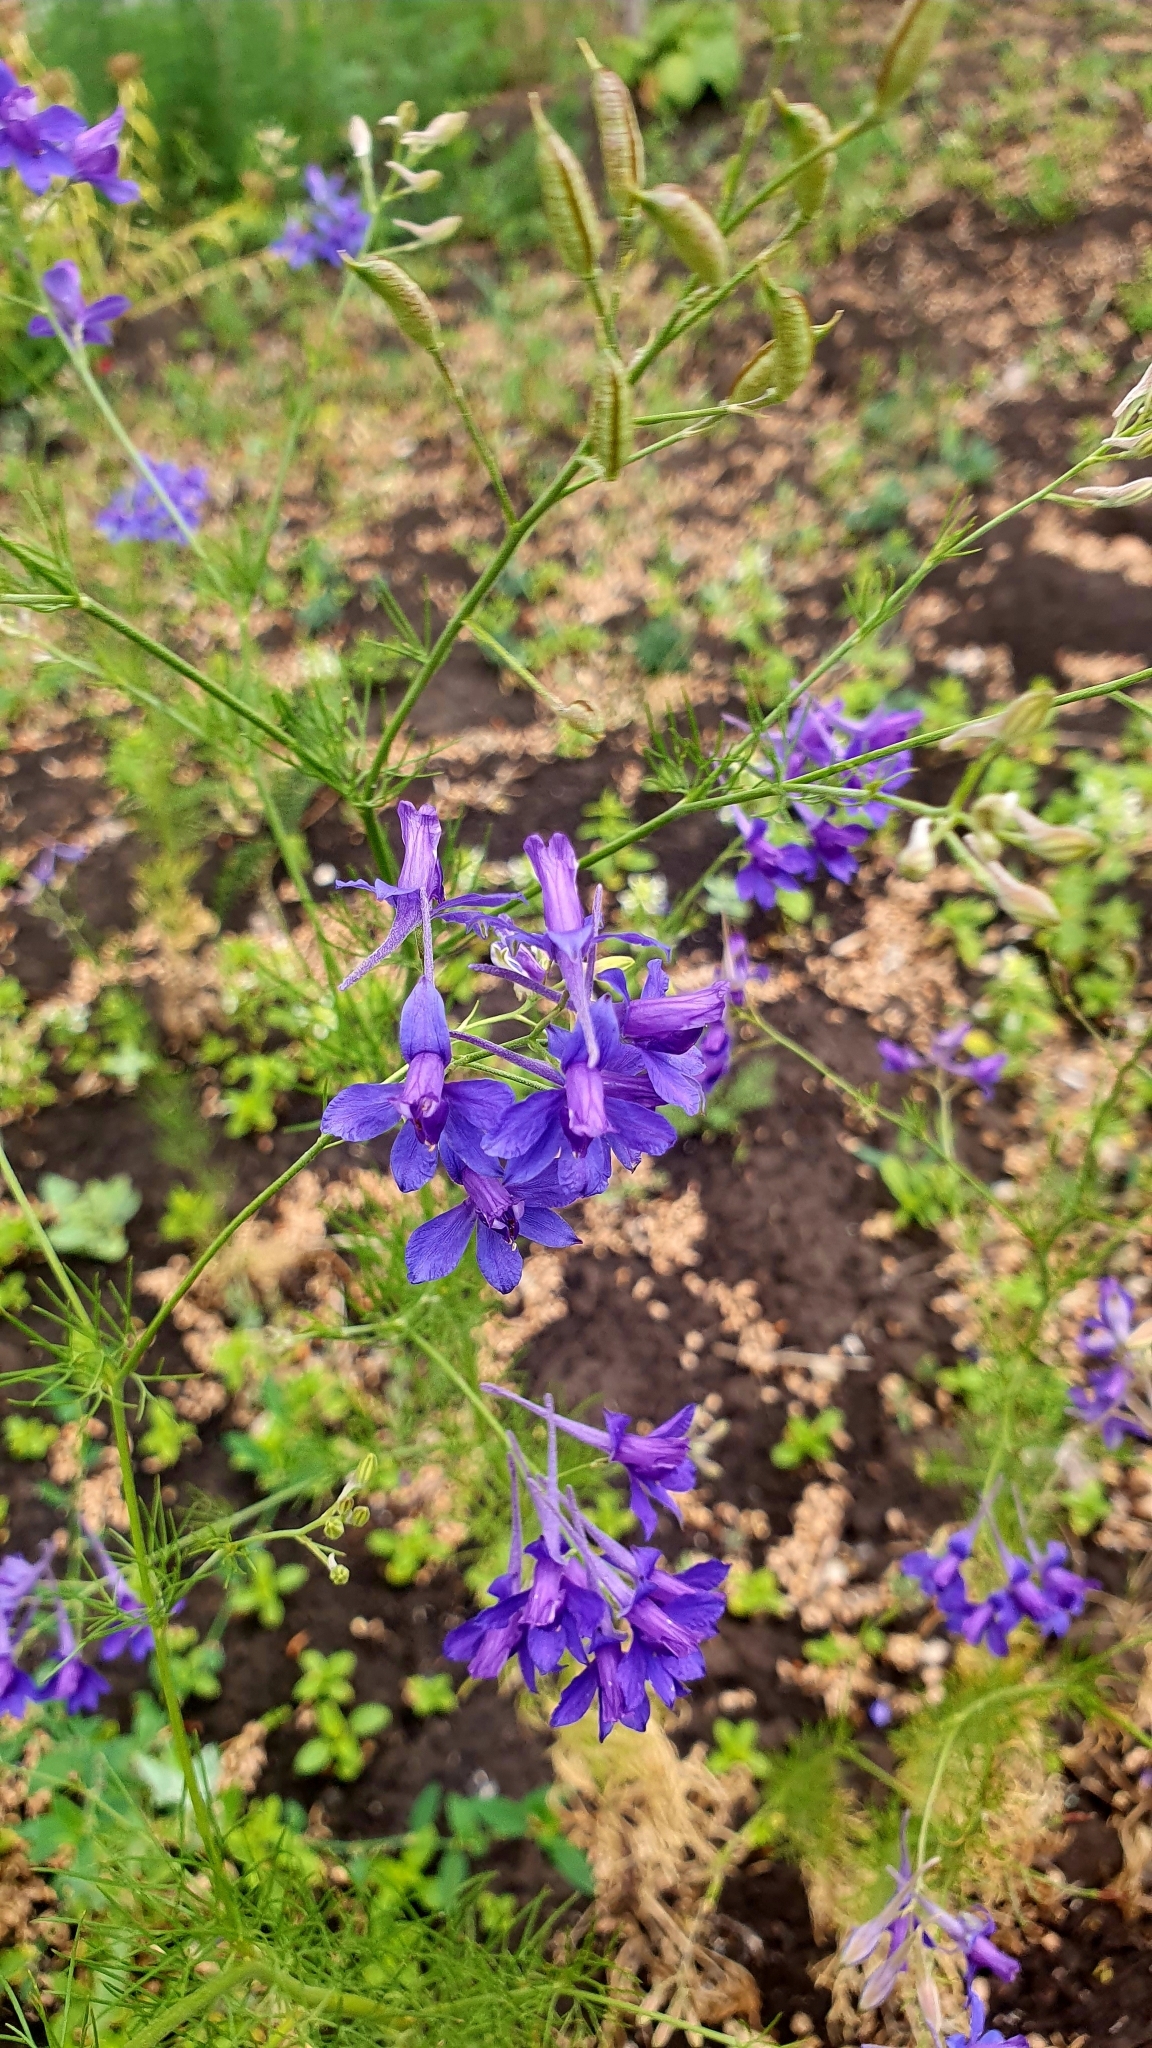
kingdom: Plantae
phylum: Tracheophyta
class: Magnoliopsida
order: Ranunculales
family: Ranunculaceae
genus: Delphinium
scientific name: Delphinium consolida
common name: Branching larkspur
